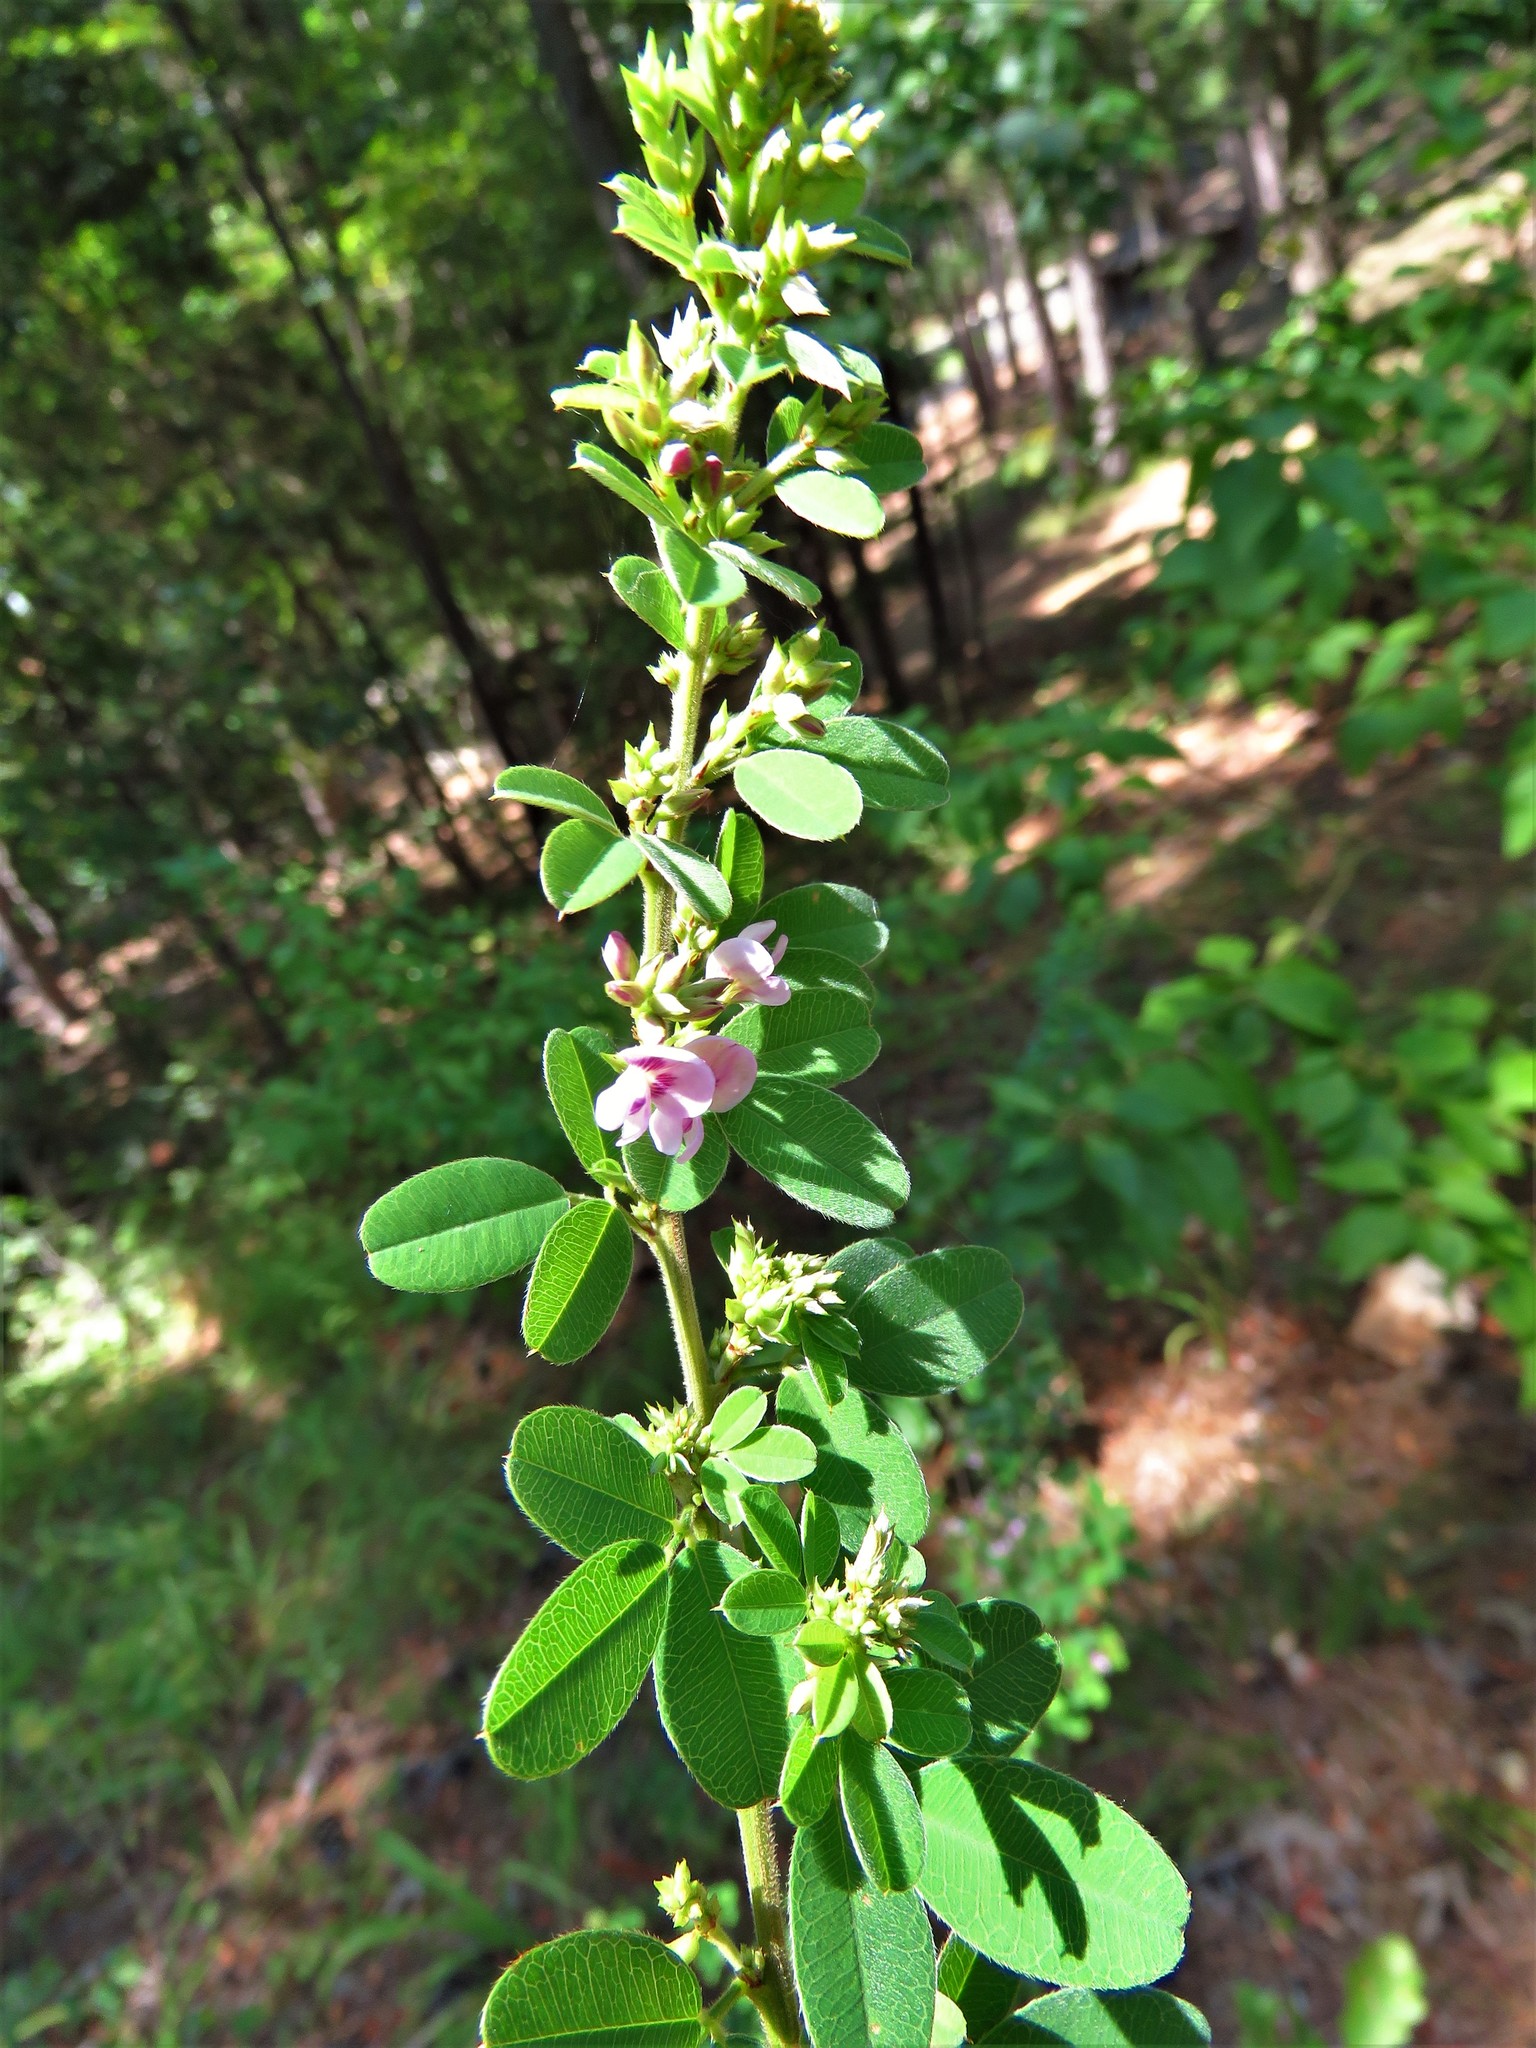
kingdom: Plantae
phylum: Tracheophyta
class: Magnoliopsida
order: Fabales
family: Fabaceae
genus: Lespedeza
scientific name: Lespedeza stuevei
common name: Tall bush-clover
